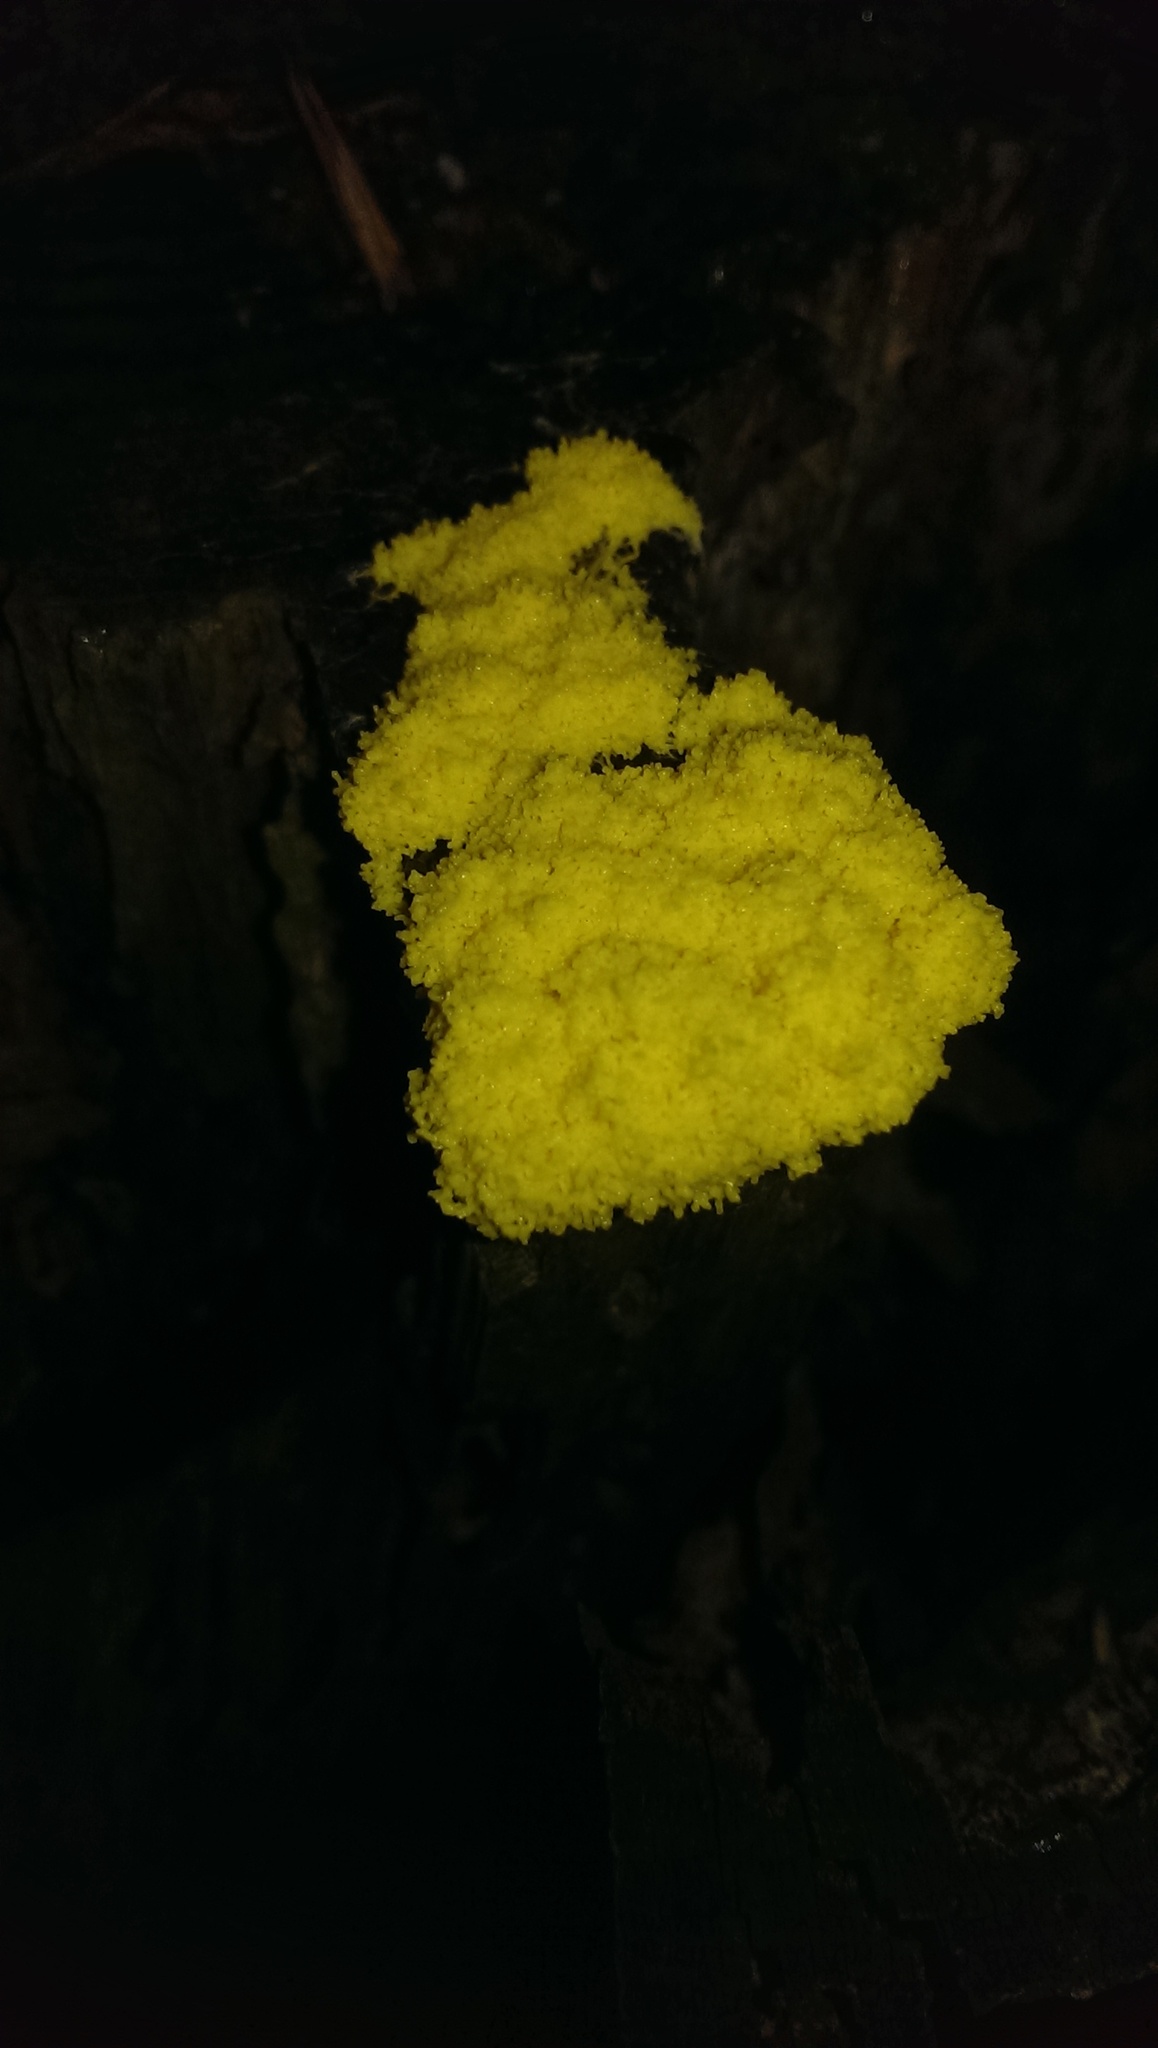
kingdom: Protozoa
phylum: Mycetozoa
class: Myxomycetes
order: Physarales
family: Physaraceae
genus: Fuligo
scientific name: Fuligo septica
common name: Dog vomit slime mold
